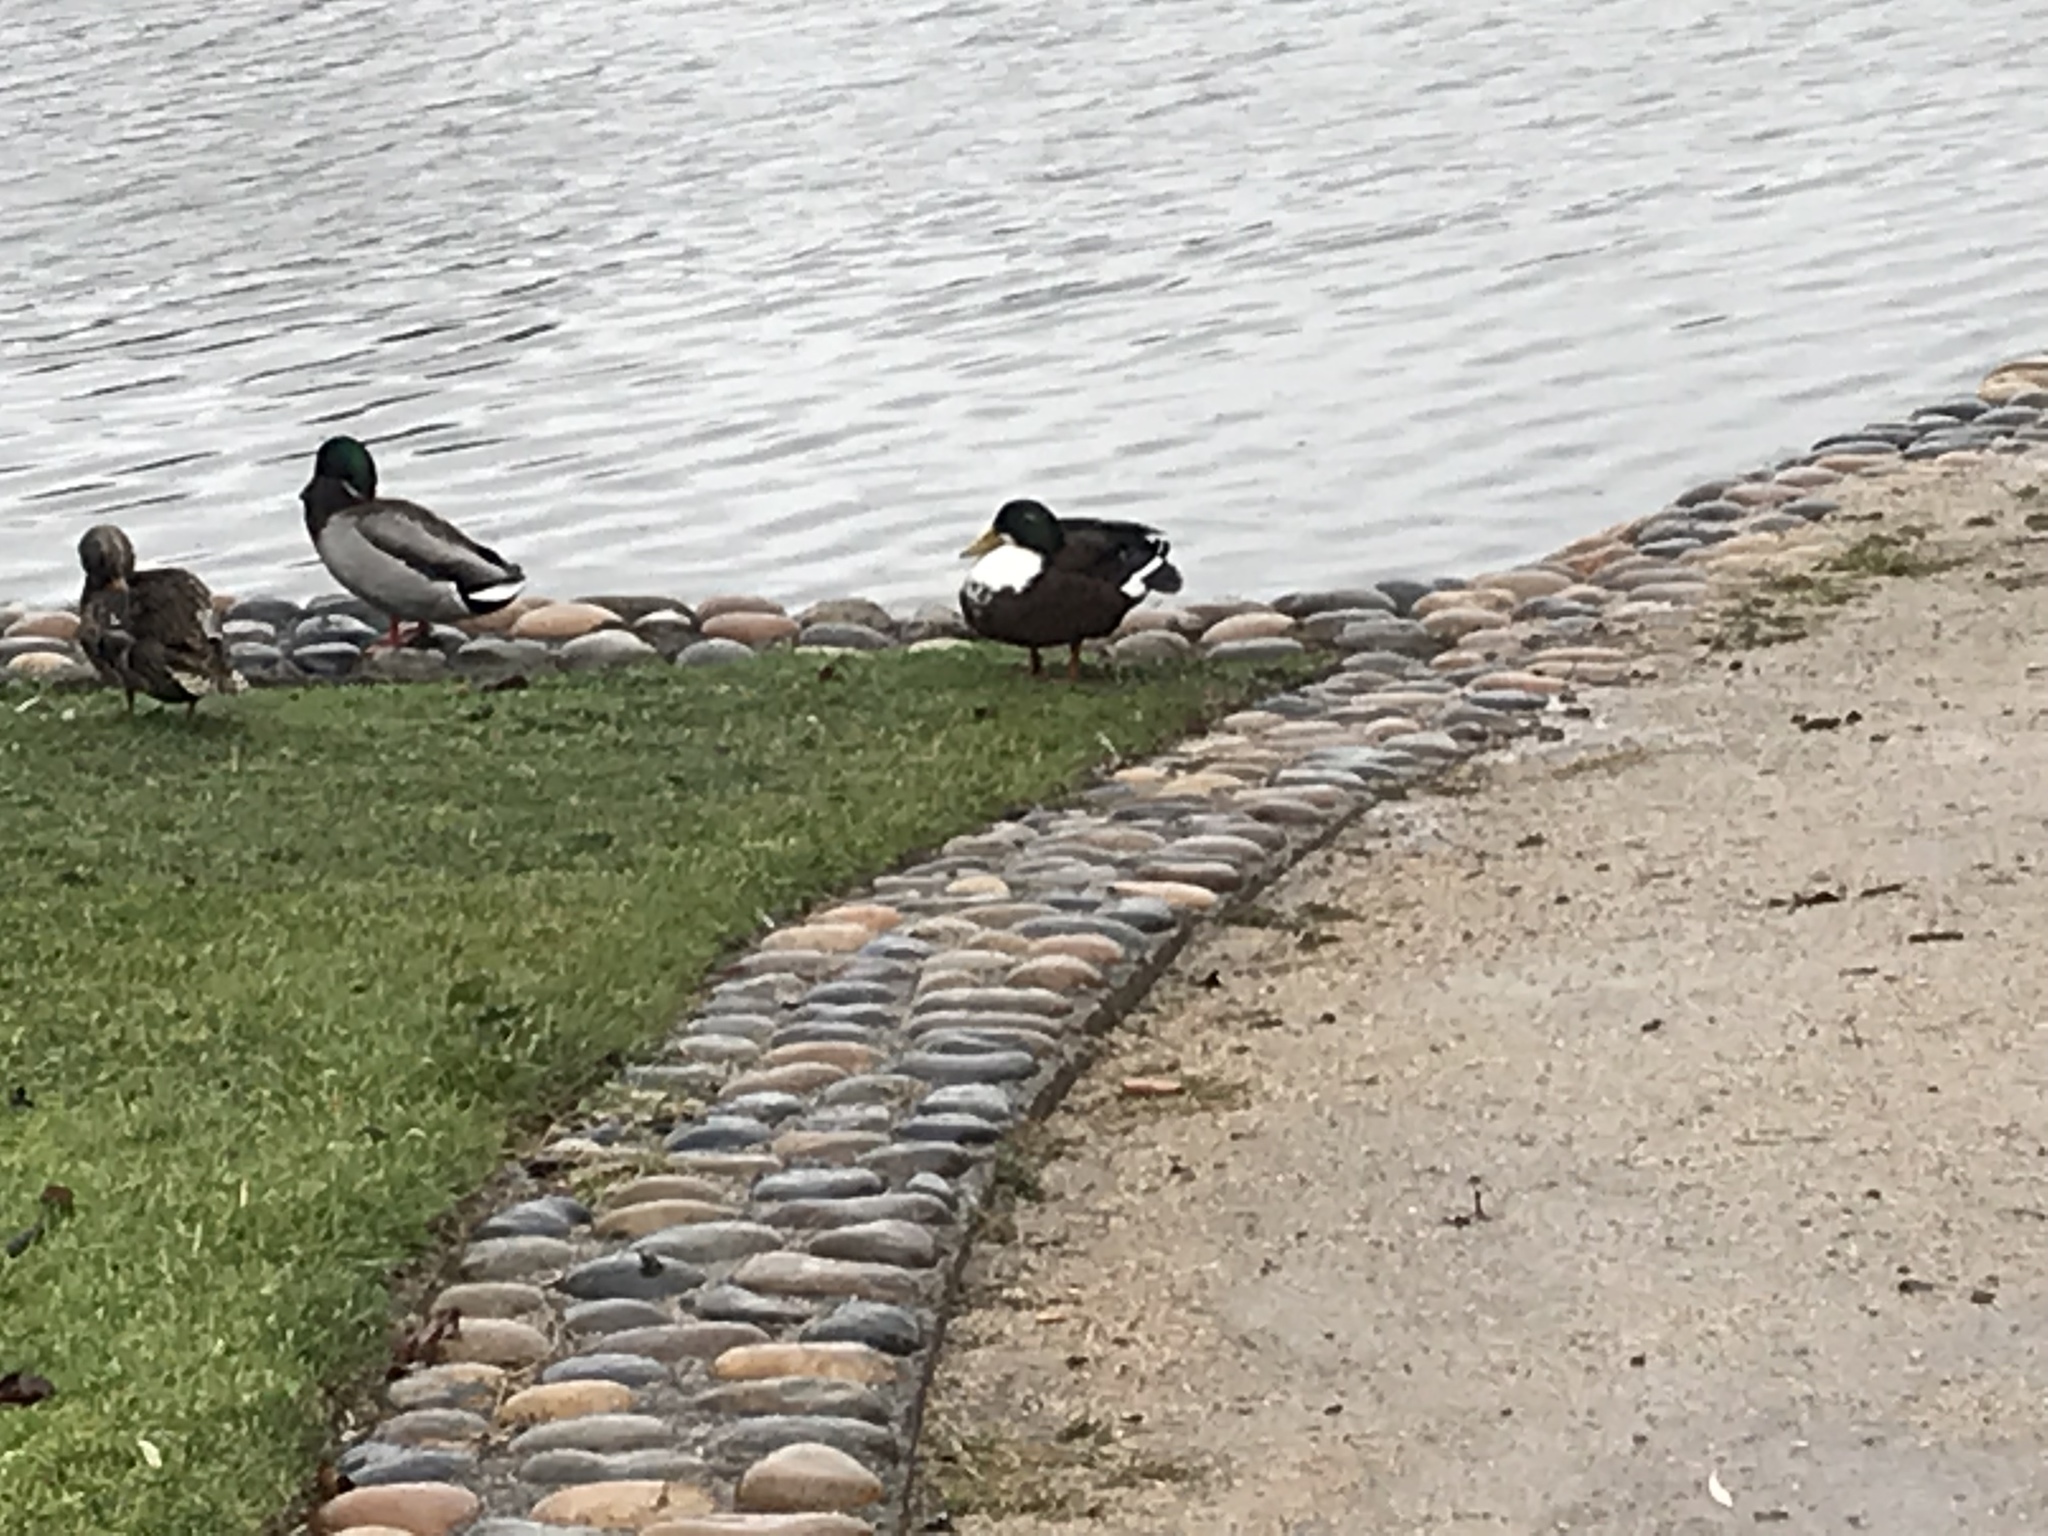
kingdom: Animalia
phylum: Chordata
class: Aves
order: Anseriformes
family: Anatidae
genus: Anas
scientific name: Anas platyrhynchos
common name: Mallard
